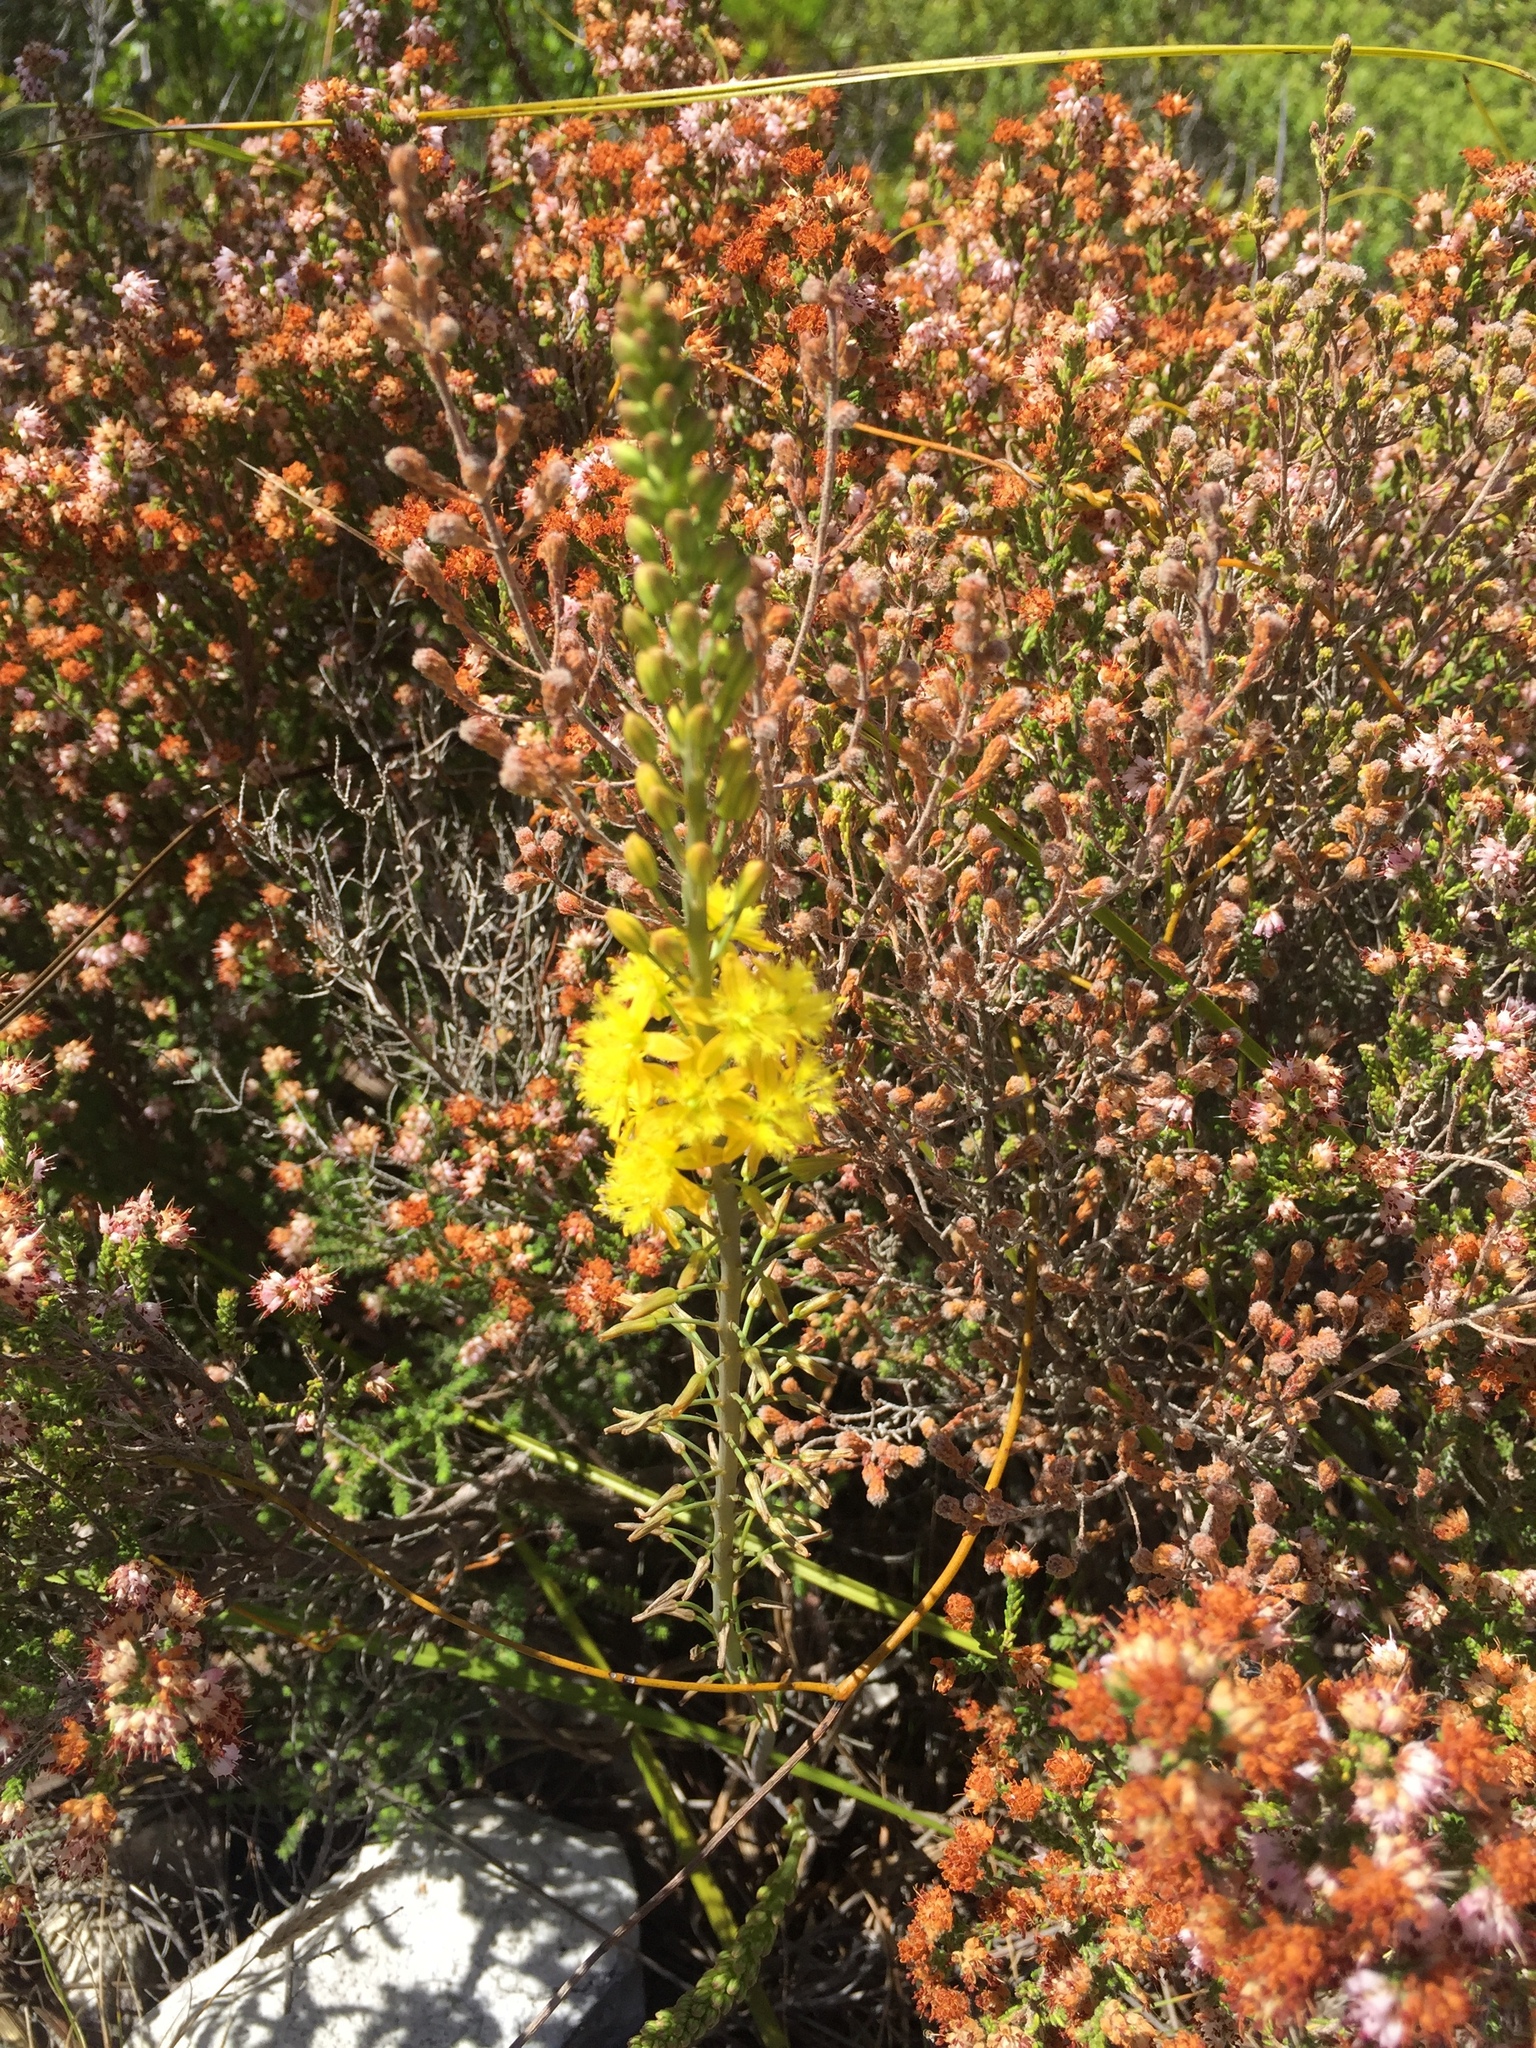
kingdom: Plantae
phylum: Tracheophyta
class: Liliopsida
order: Asparagales
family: Asphodelaceae
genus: Bulbine
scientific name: Bulbine cepacea
